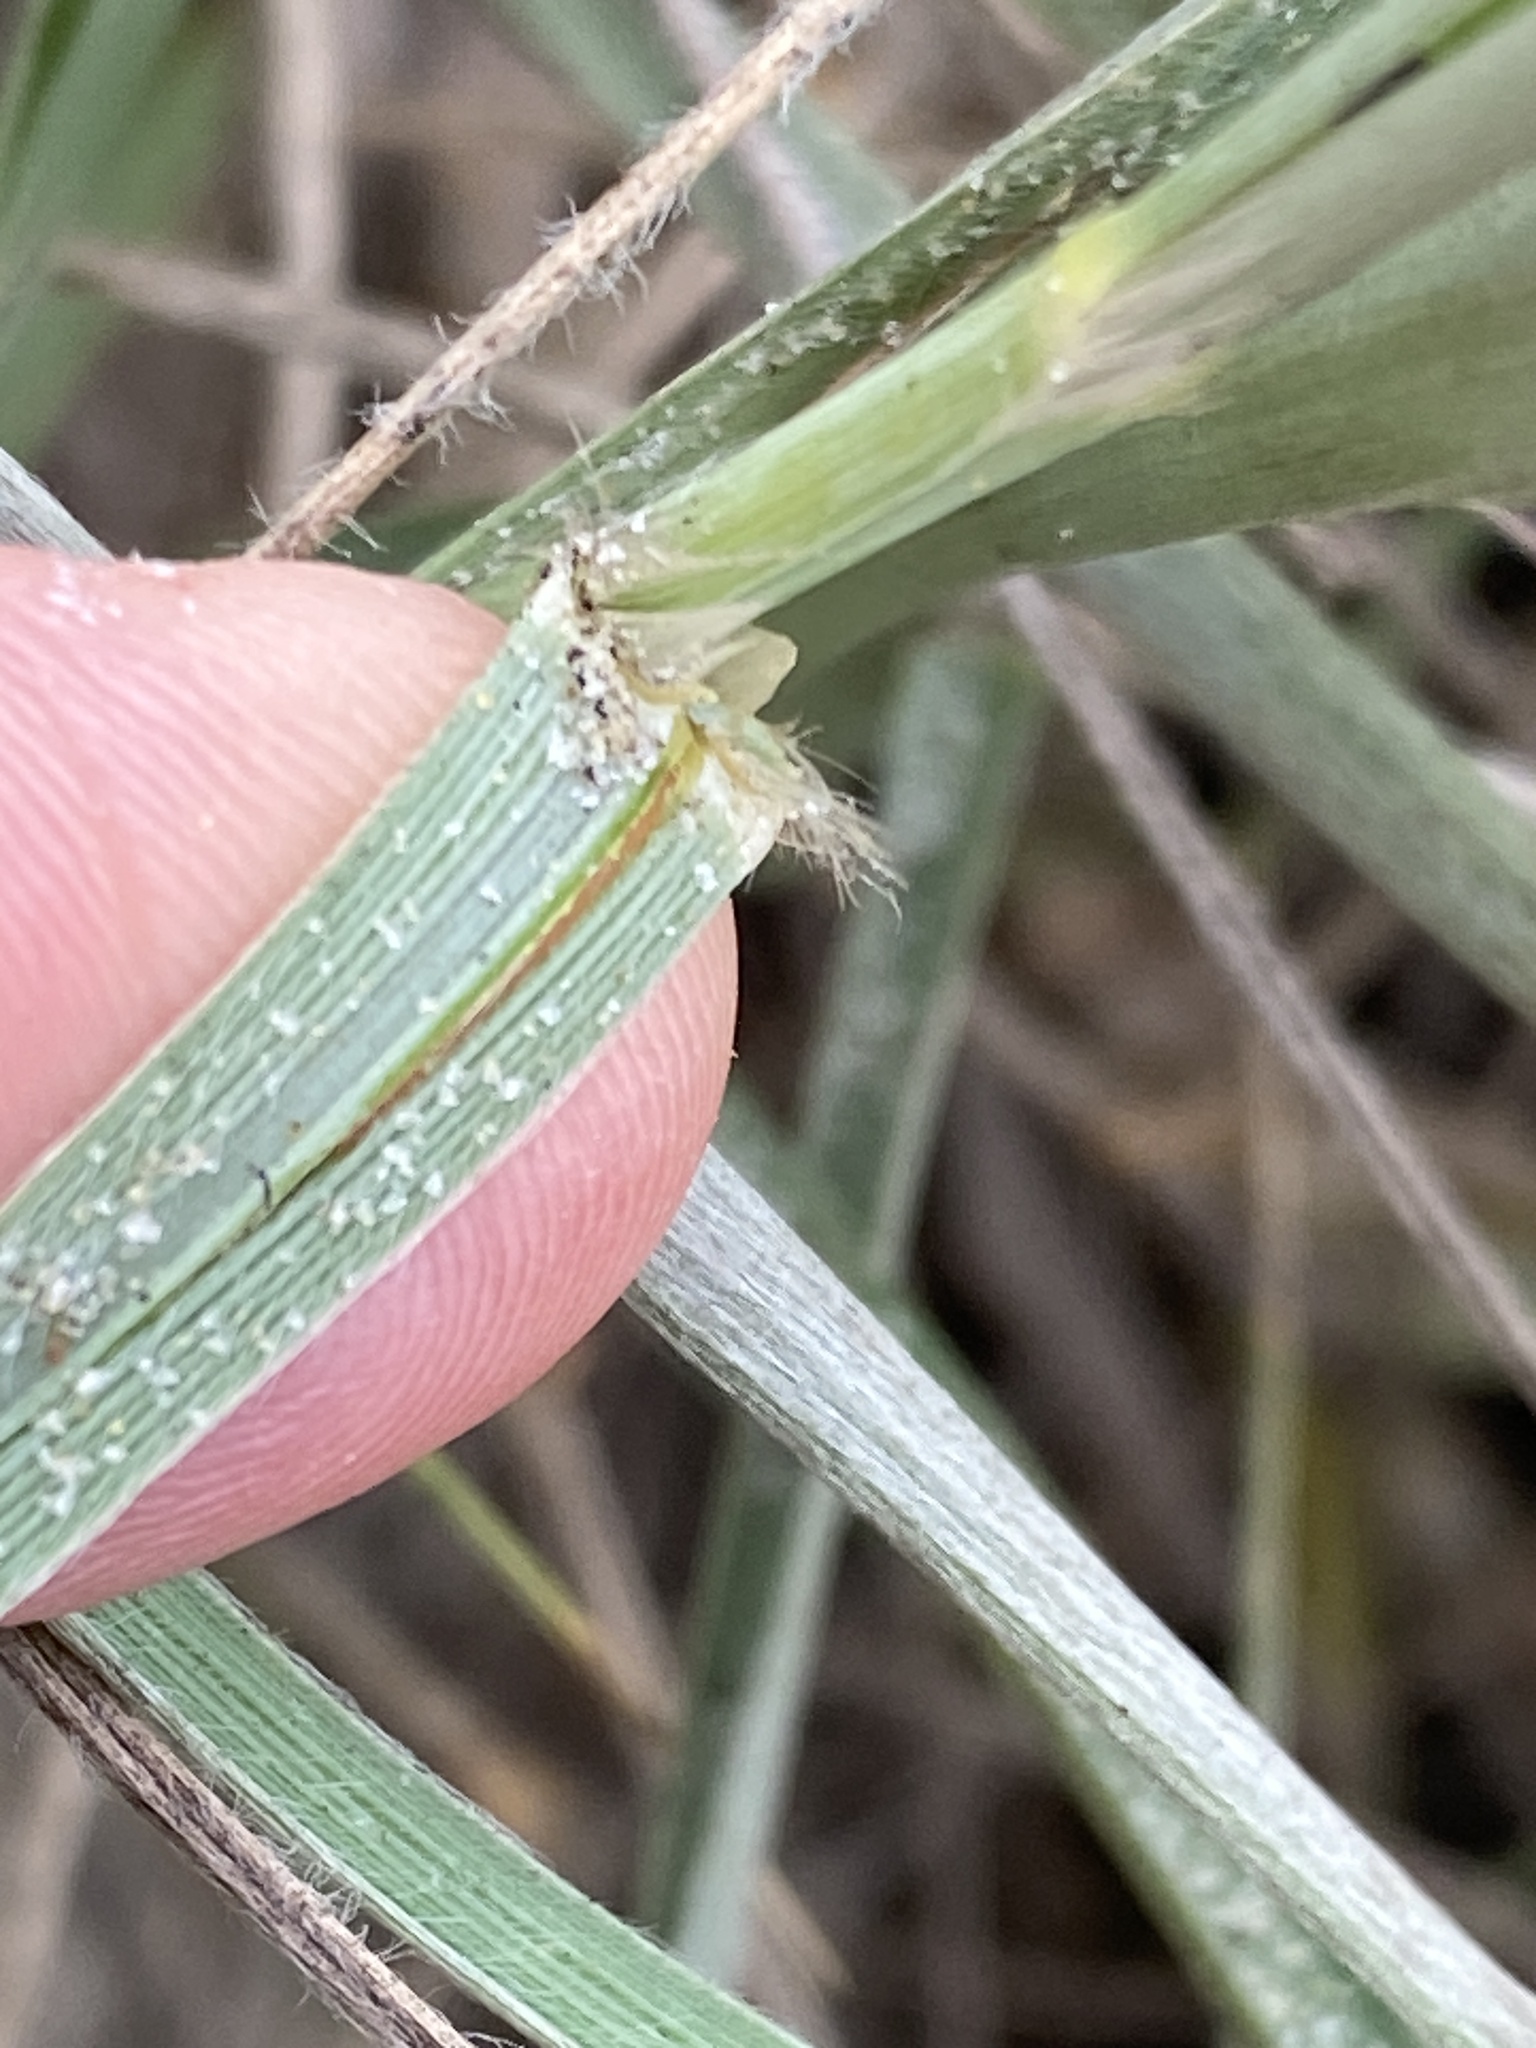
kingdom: Plantae
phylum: Tracheophyta
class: Liliopsida
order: Poales
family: Poaceae
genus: Spinifex
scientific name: Spinifex sericeus
